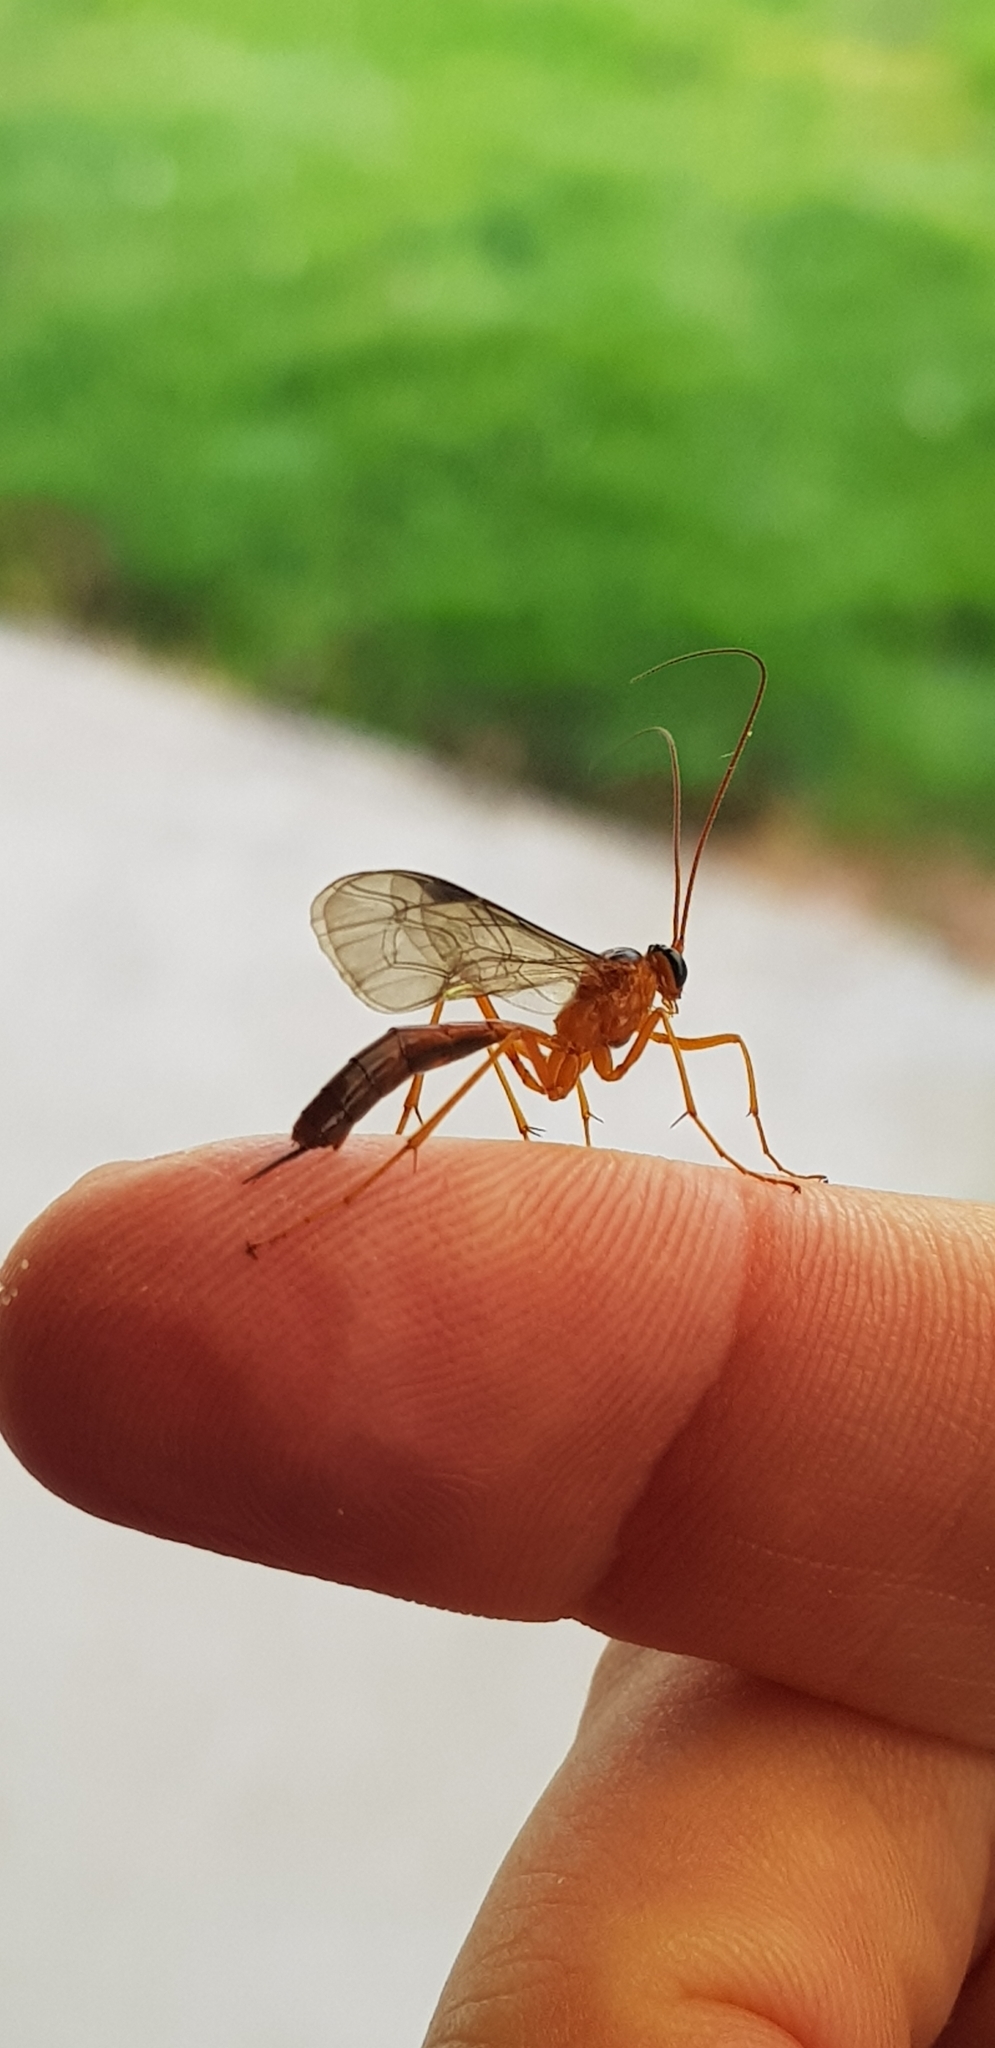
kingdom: Animalia
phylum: Arthropoda
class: Insecta
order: Hymenoptera
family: Ichneumonidae
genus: Netelia
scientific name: Netelia ephippiata
